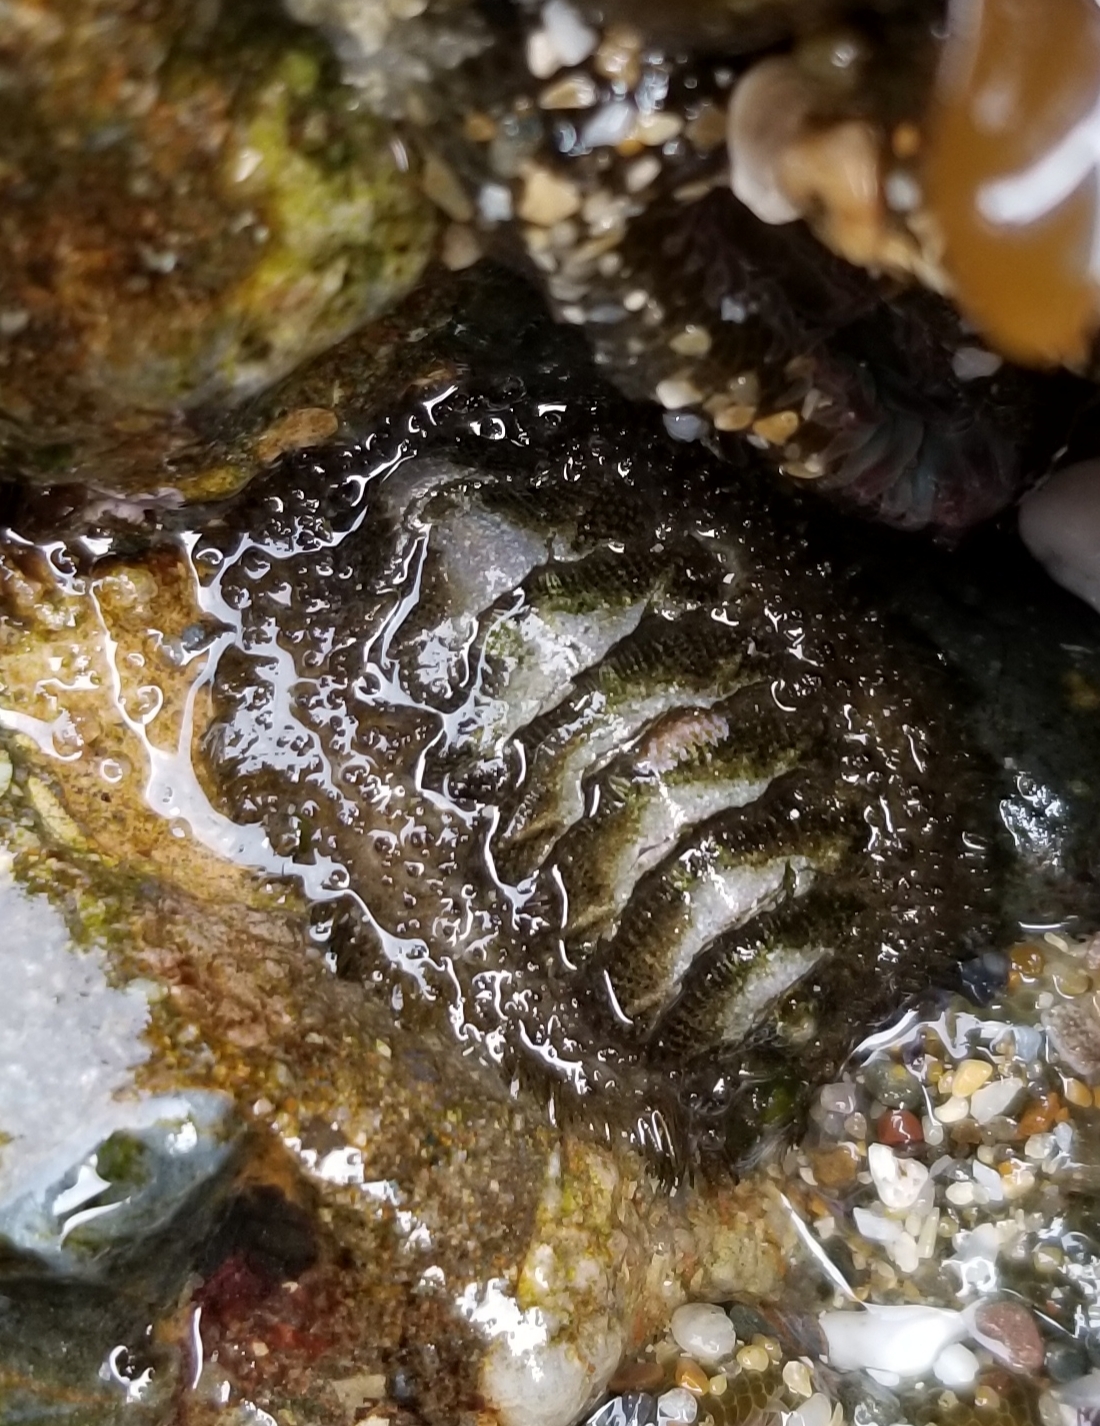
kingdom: Animalia
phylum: Mollusca
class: Polyplacophora
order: Chitonida
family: Mopaliidae
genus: Mopalia
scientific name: Mopalia muscosa
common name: Mossy chiton
